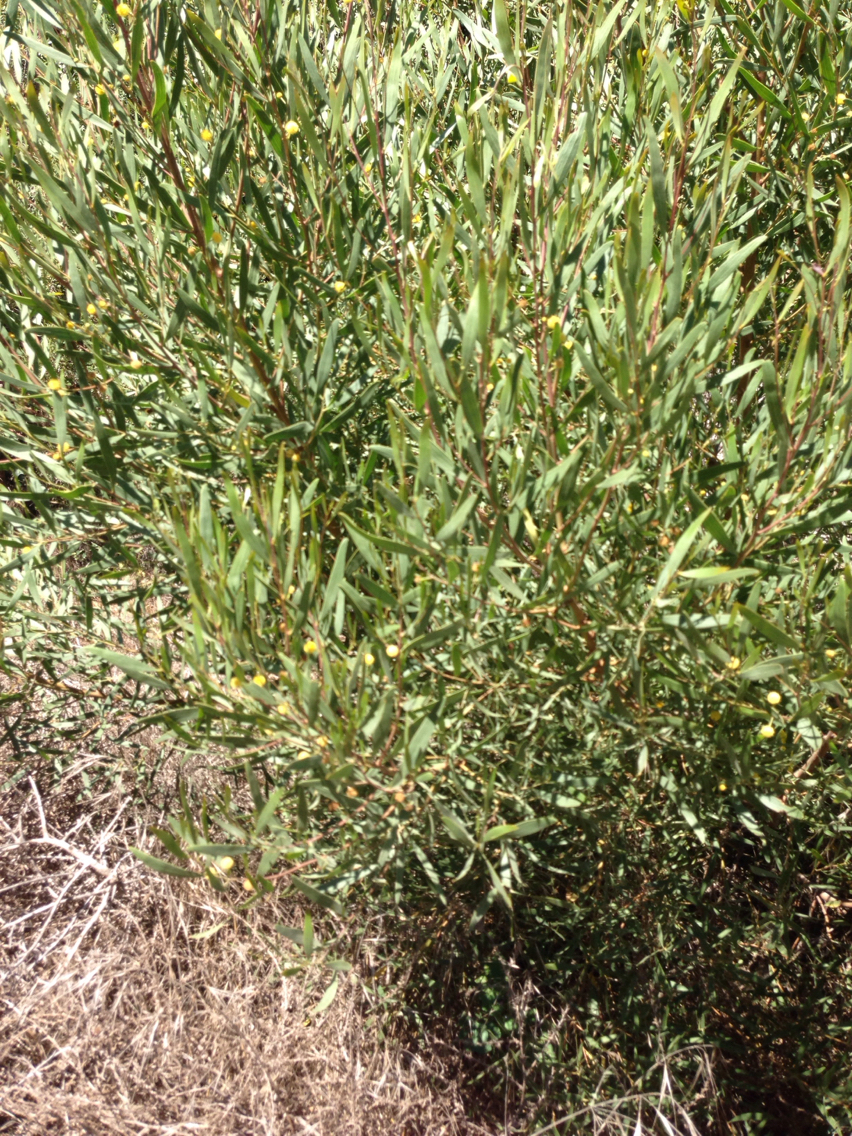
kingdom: Plantae
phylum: Tracheophyta
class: Magnoliopsida
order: Fabales
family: Fabaceae
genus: Acacia
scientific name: Acacia cyclops
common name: Coastal wattle
